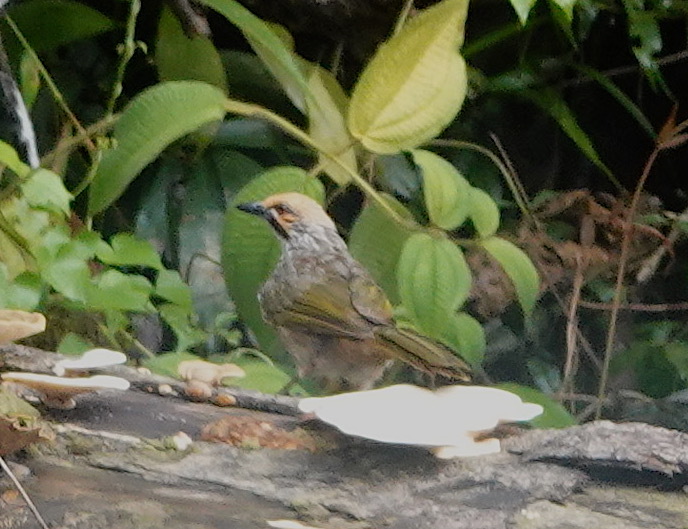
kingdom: Animalia
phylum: Chordata
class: Aves
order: Passeriformes
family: Pycnonotidae
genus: Pycnonotus
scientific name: Pycnonotus zeylanicus
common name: Straw-headed bulbul
